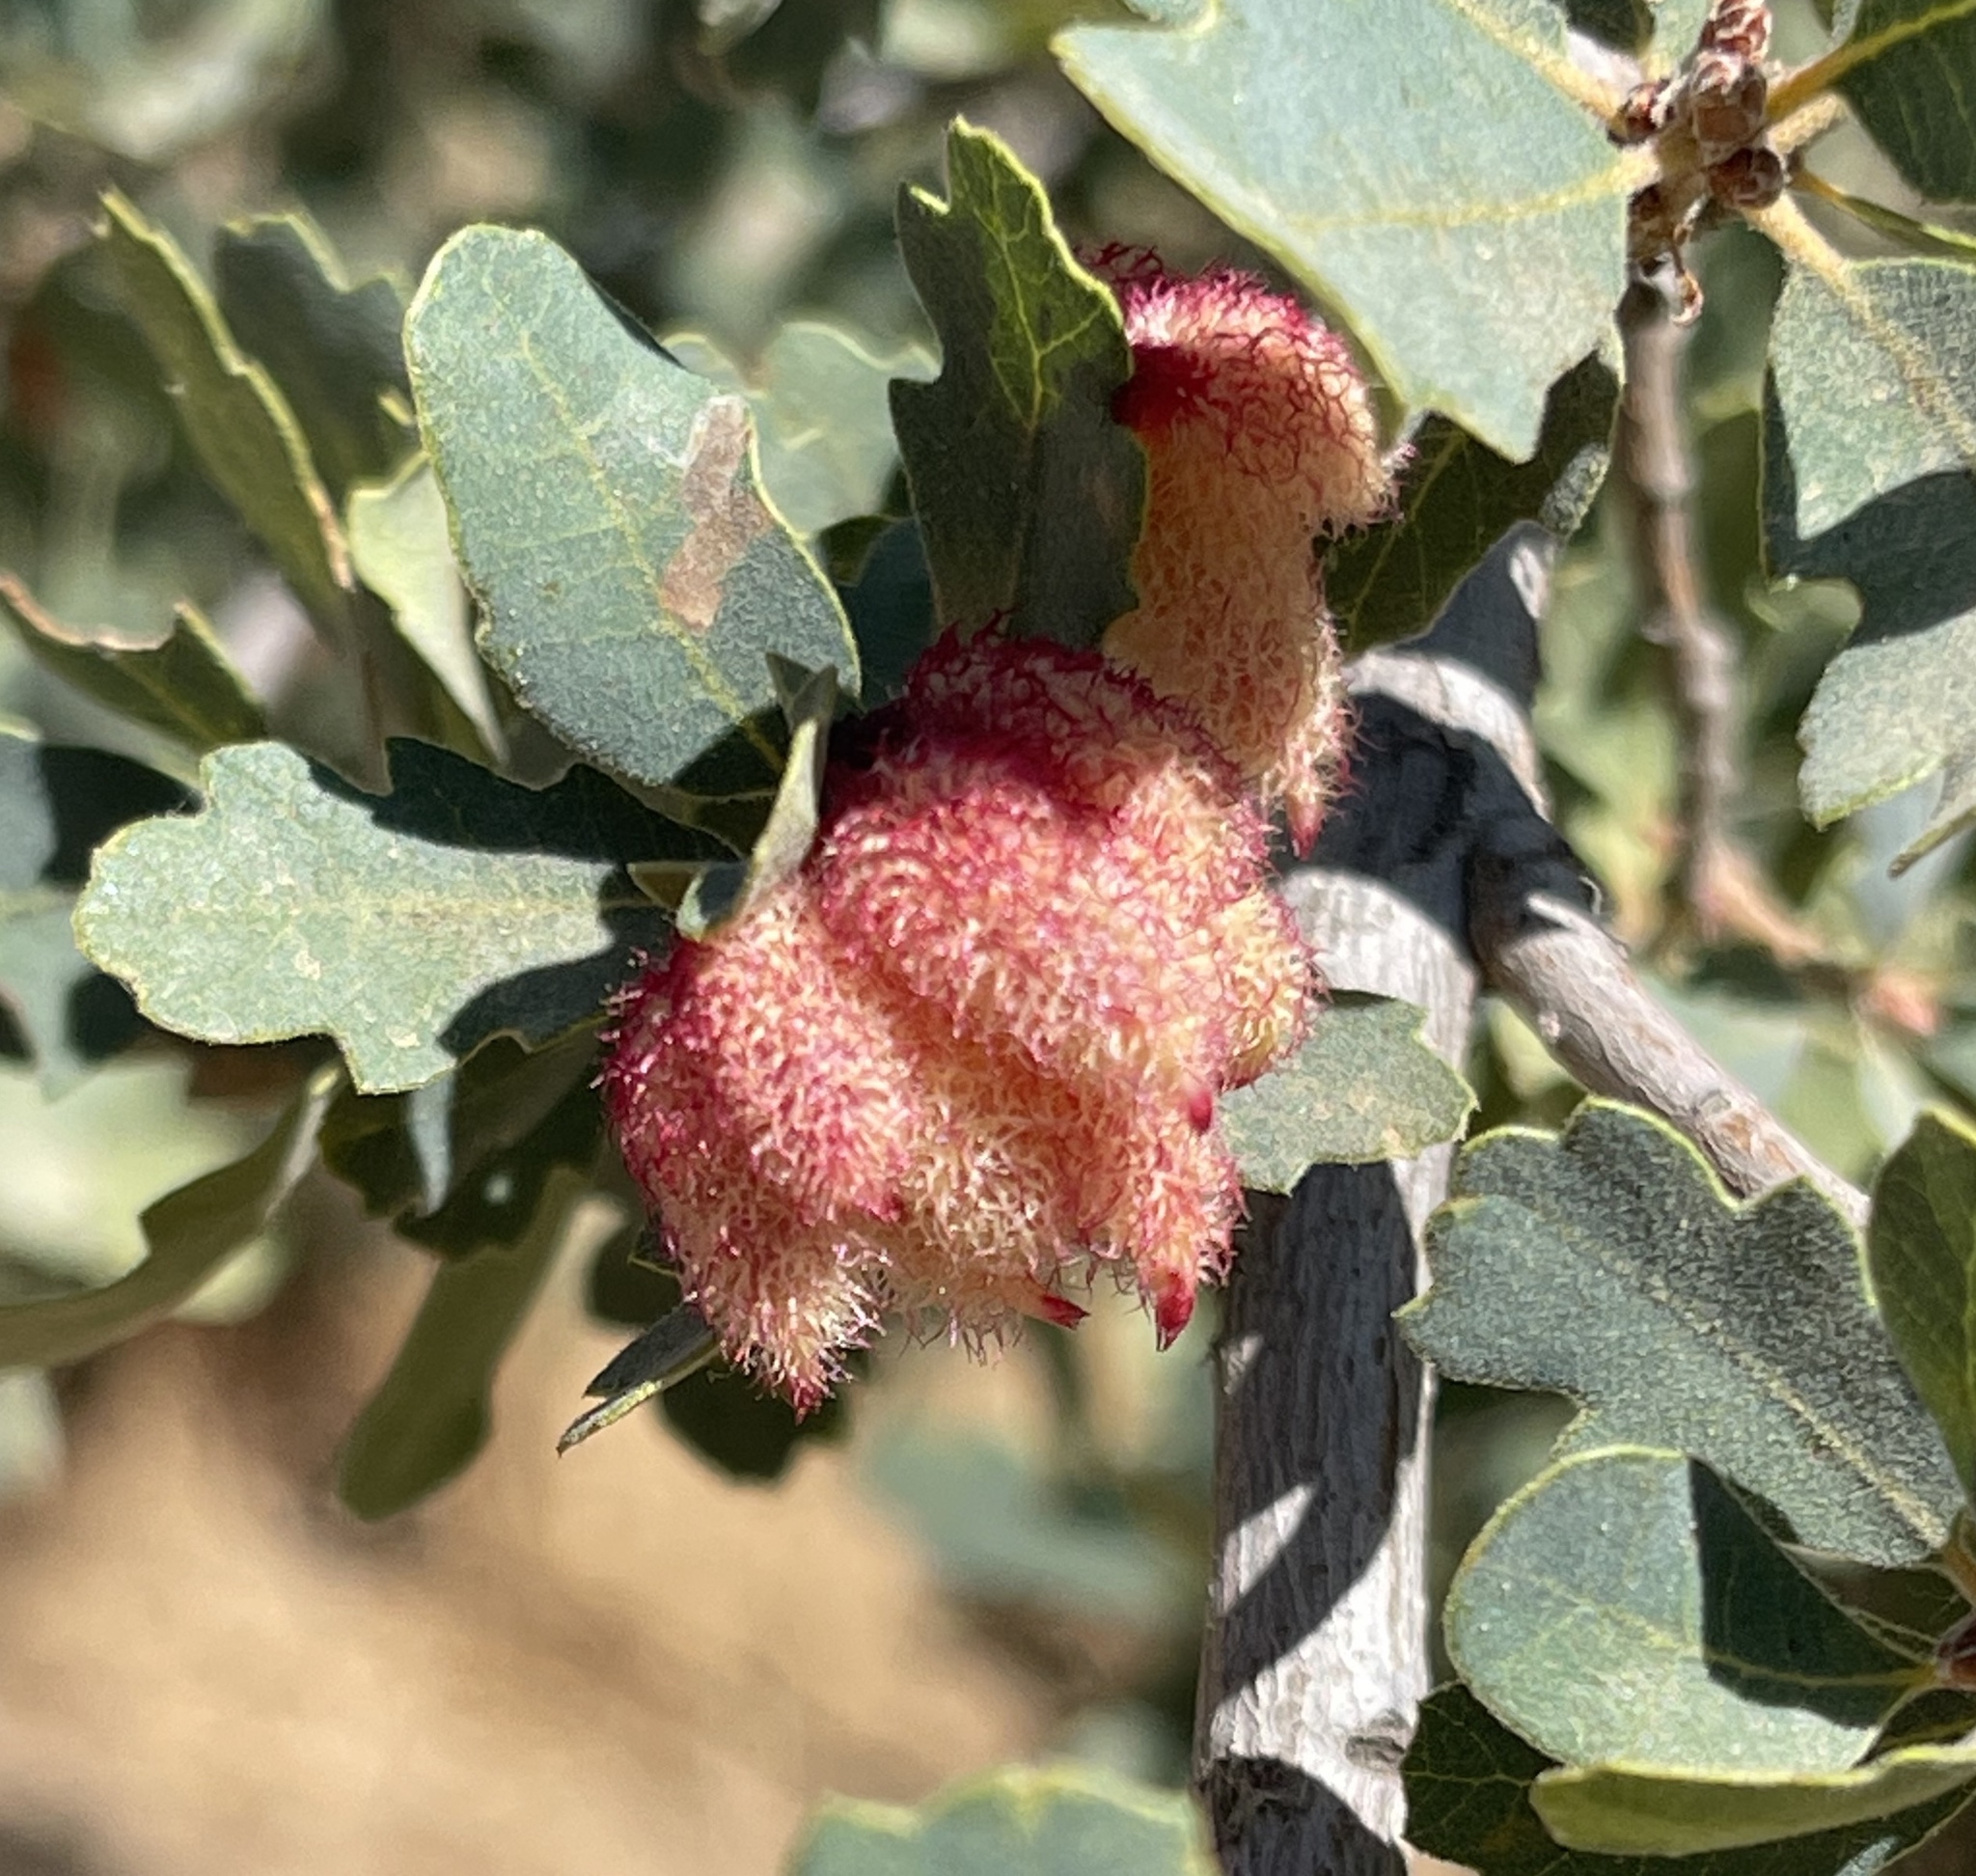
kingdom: Animalia
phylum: Arthropoda
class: Insecta
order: Hymenoptera
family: Cynipidae
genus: Andricus
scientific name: Andricus
